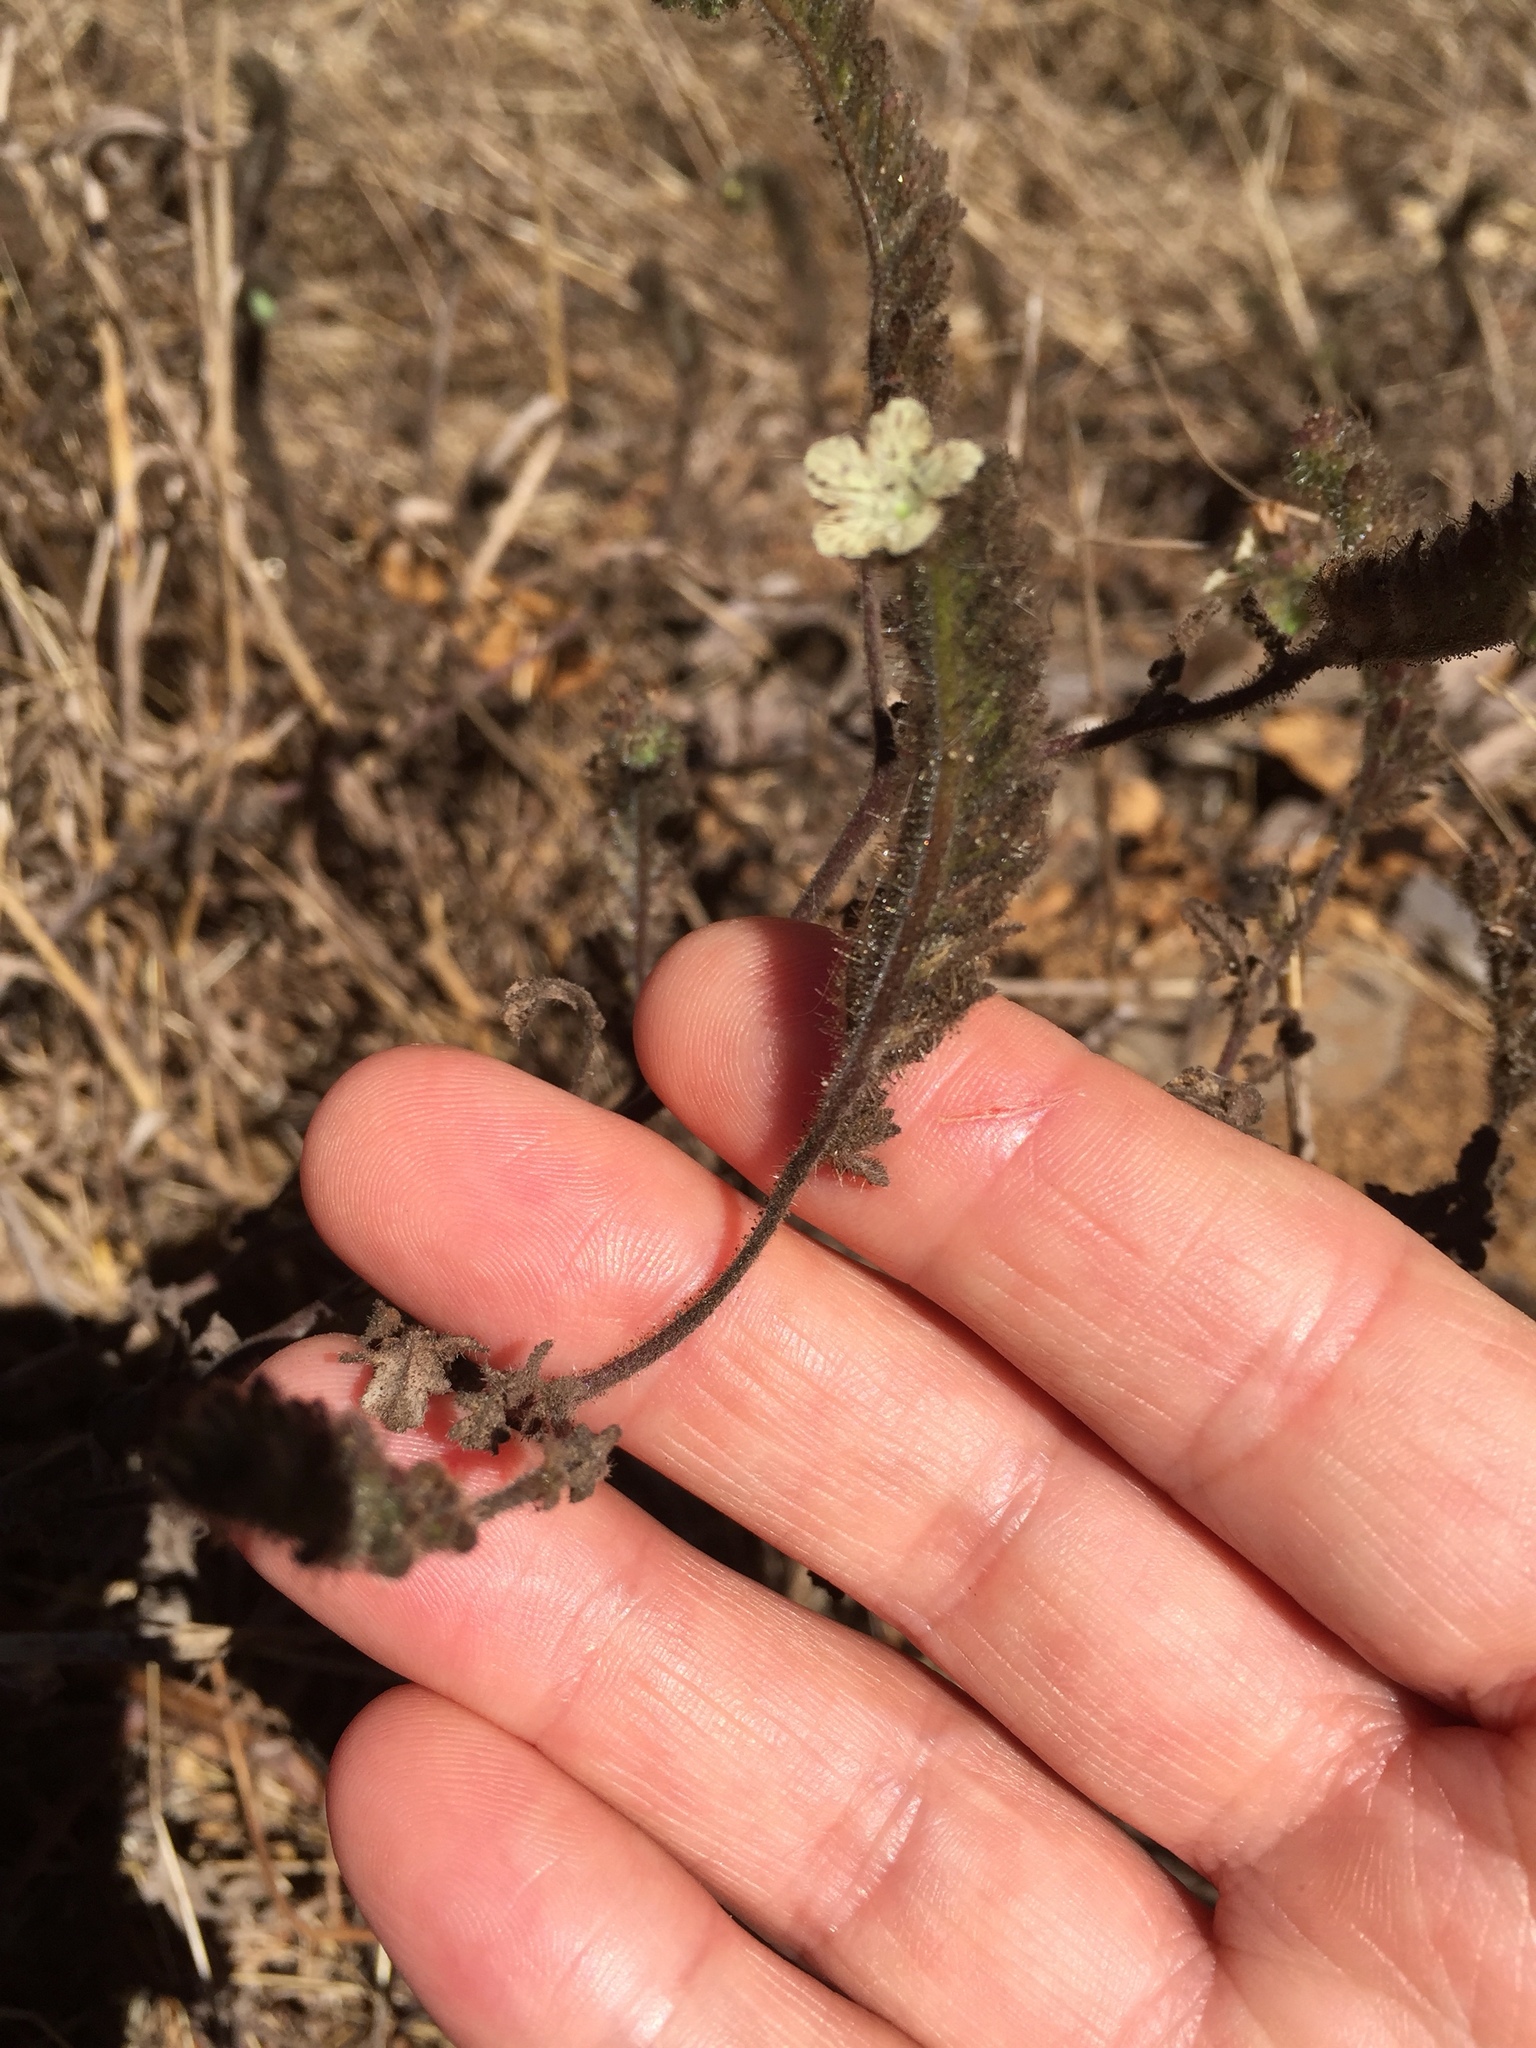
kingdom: Plantae
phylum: Tracheophyta
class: Magnoliopsida
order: Boraginales
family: Hydrophyllaceae
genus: Phacelia
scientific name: Phacelia distans
